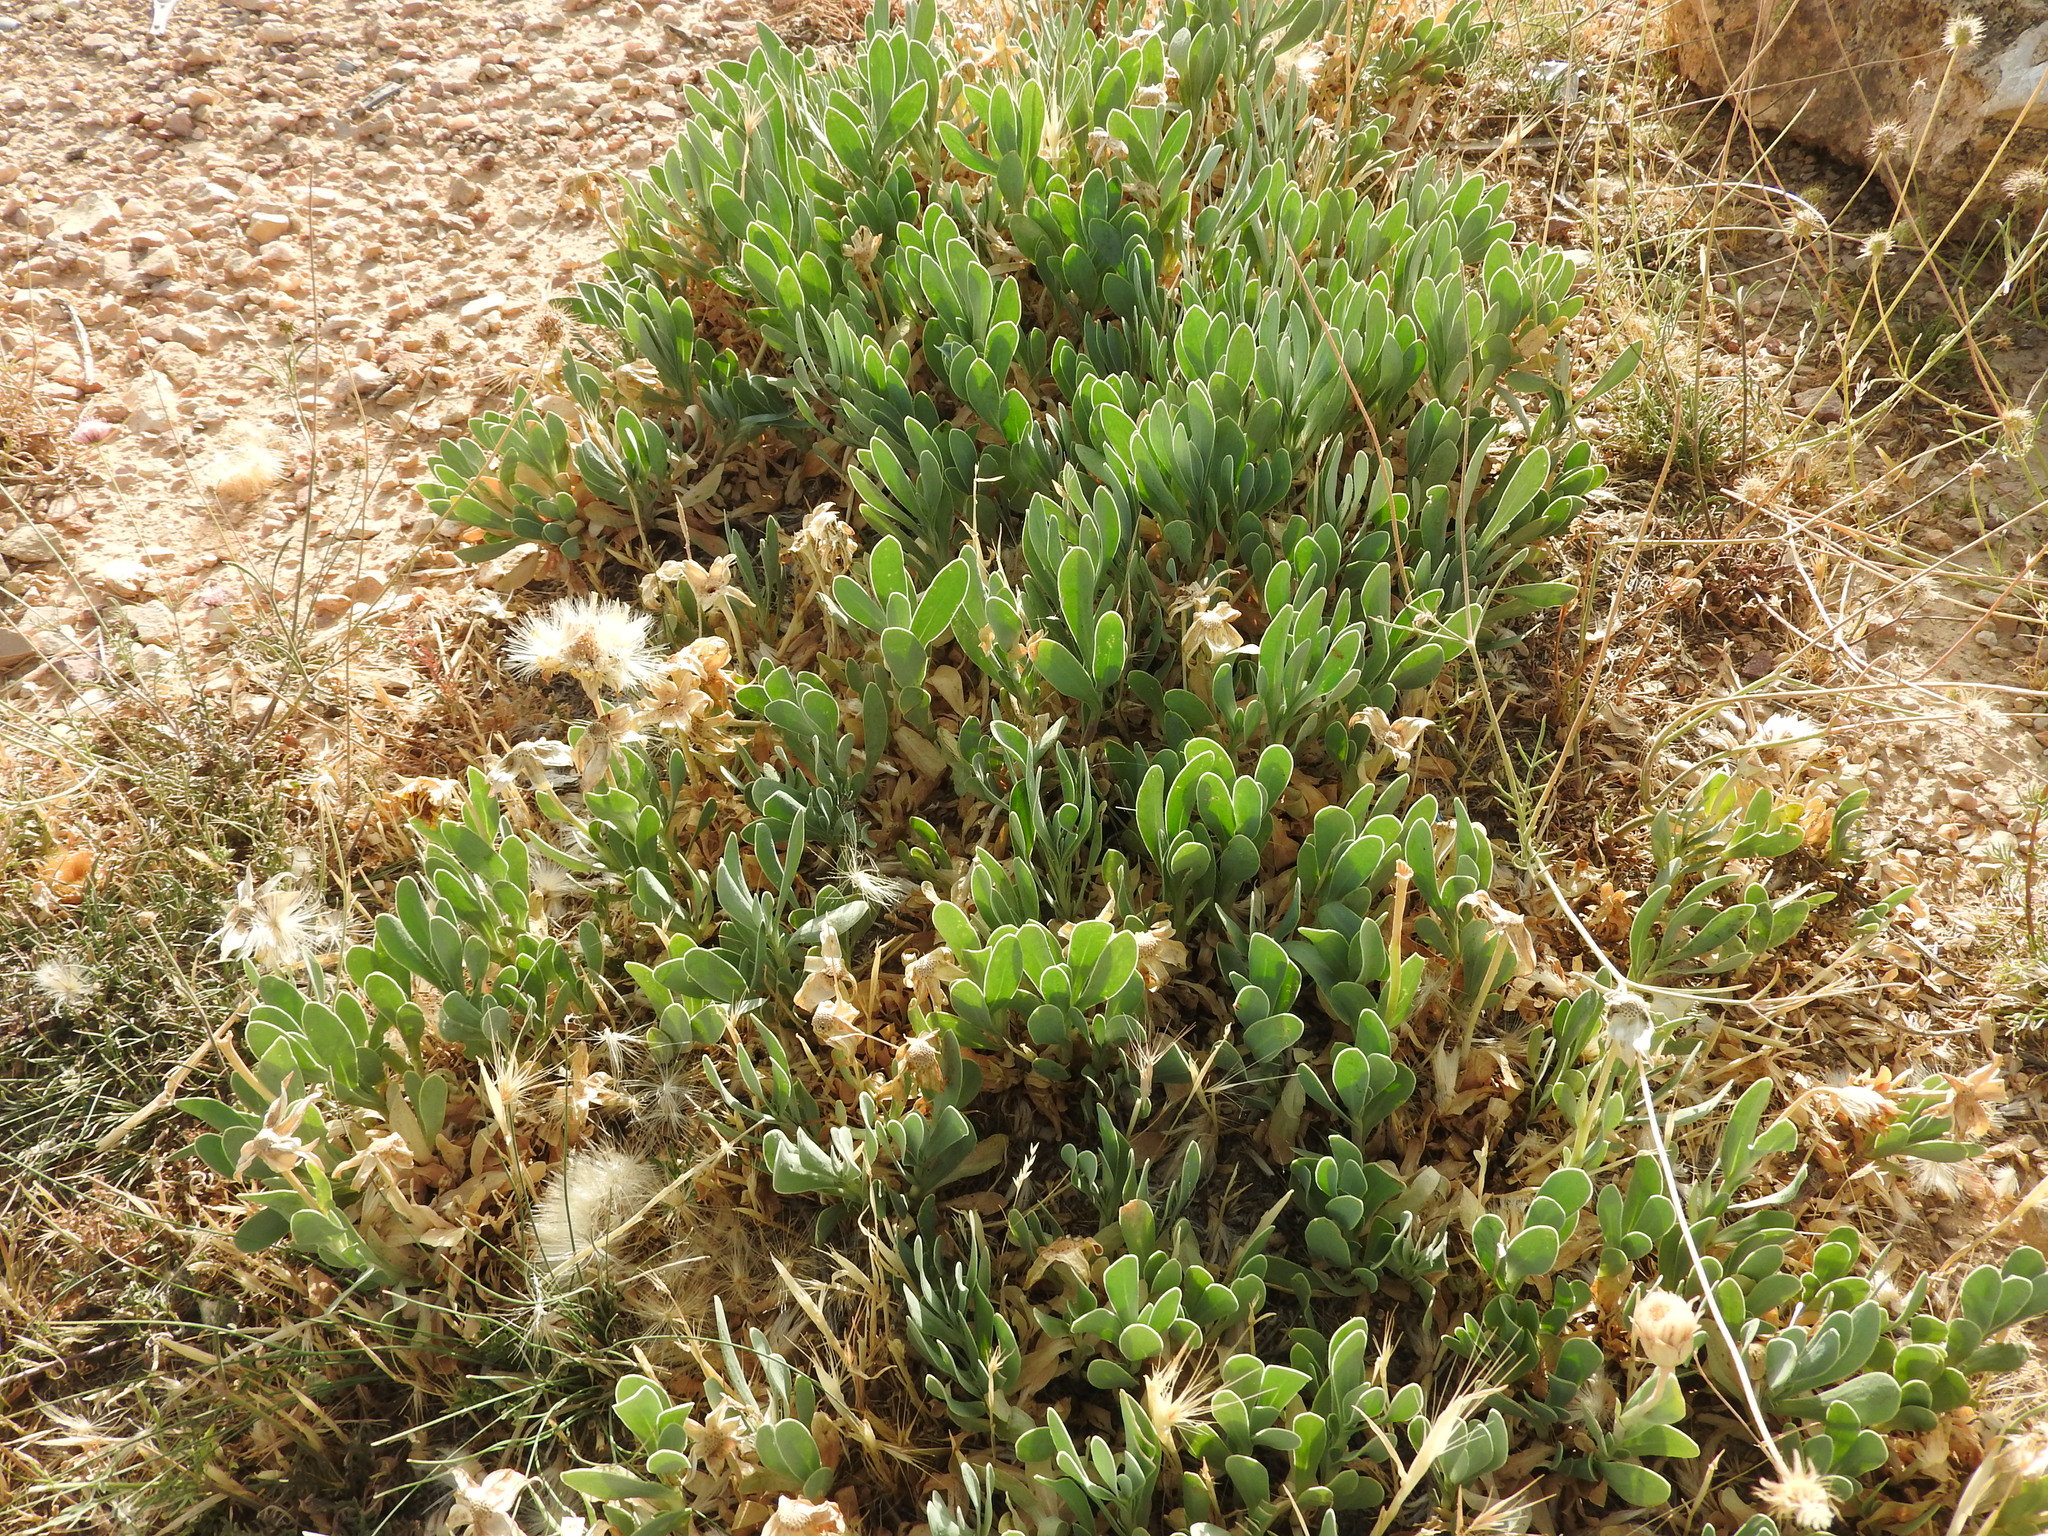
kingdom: Plantae
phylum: Tracheophyta
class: Magnoliopsida
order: Asterales
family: Asteraceae
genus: Hertia
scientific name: Hertia cheirifolia
